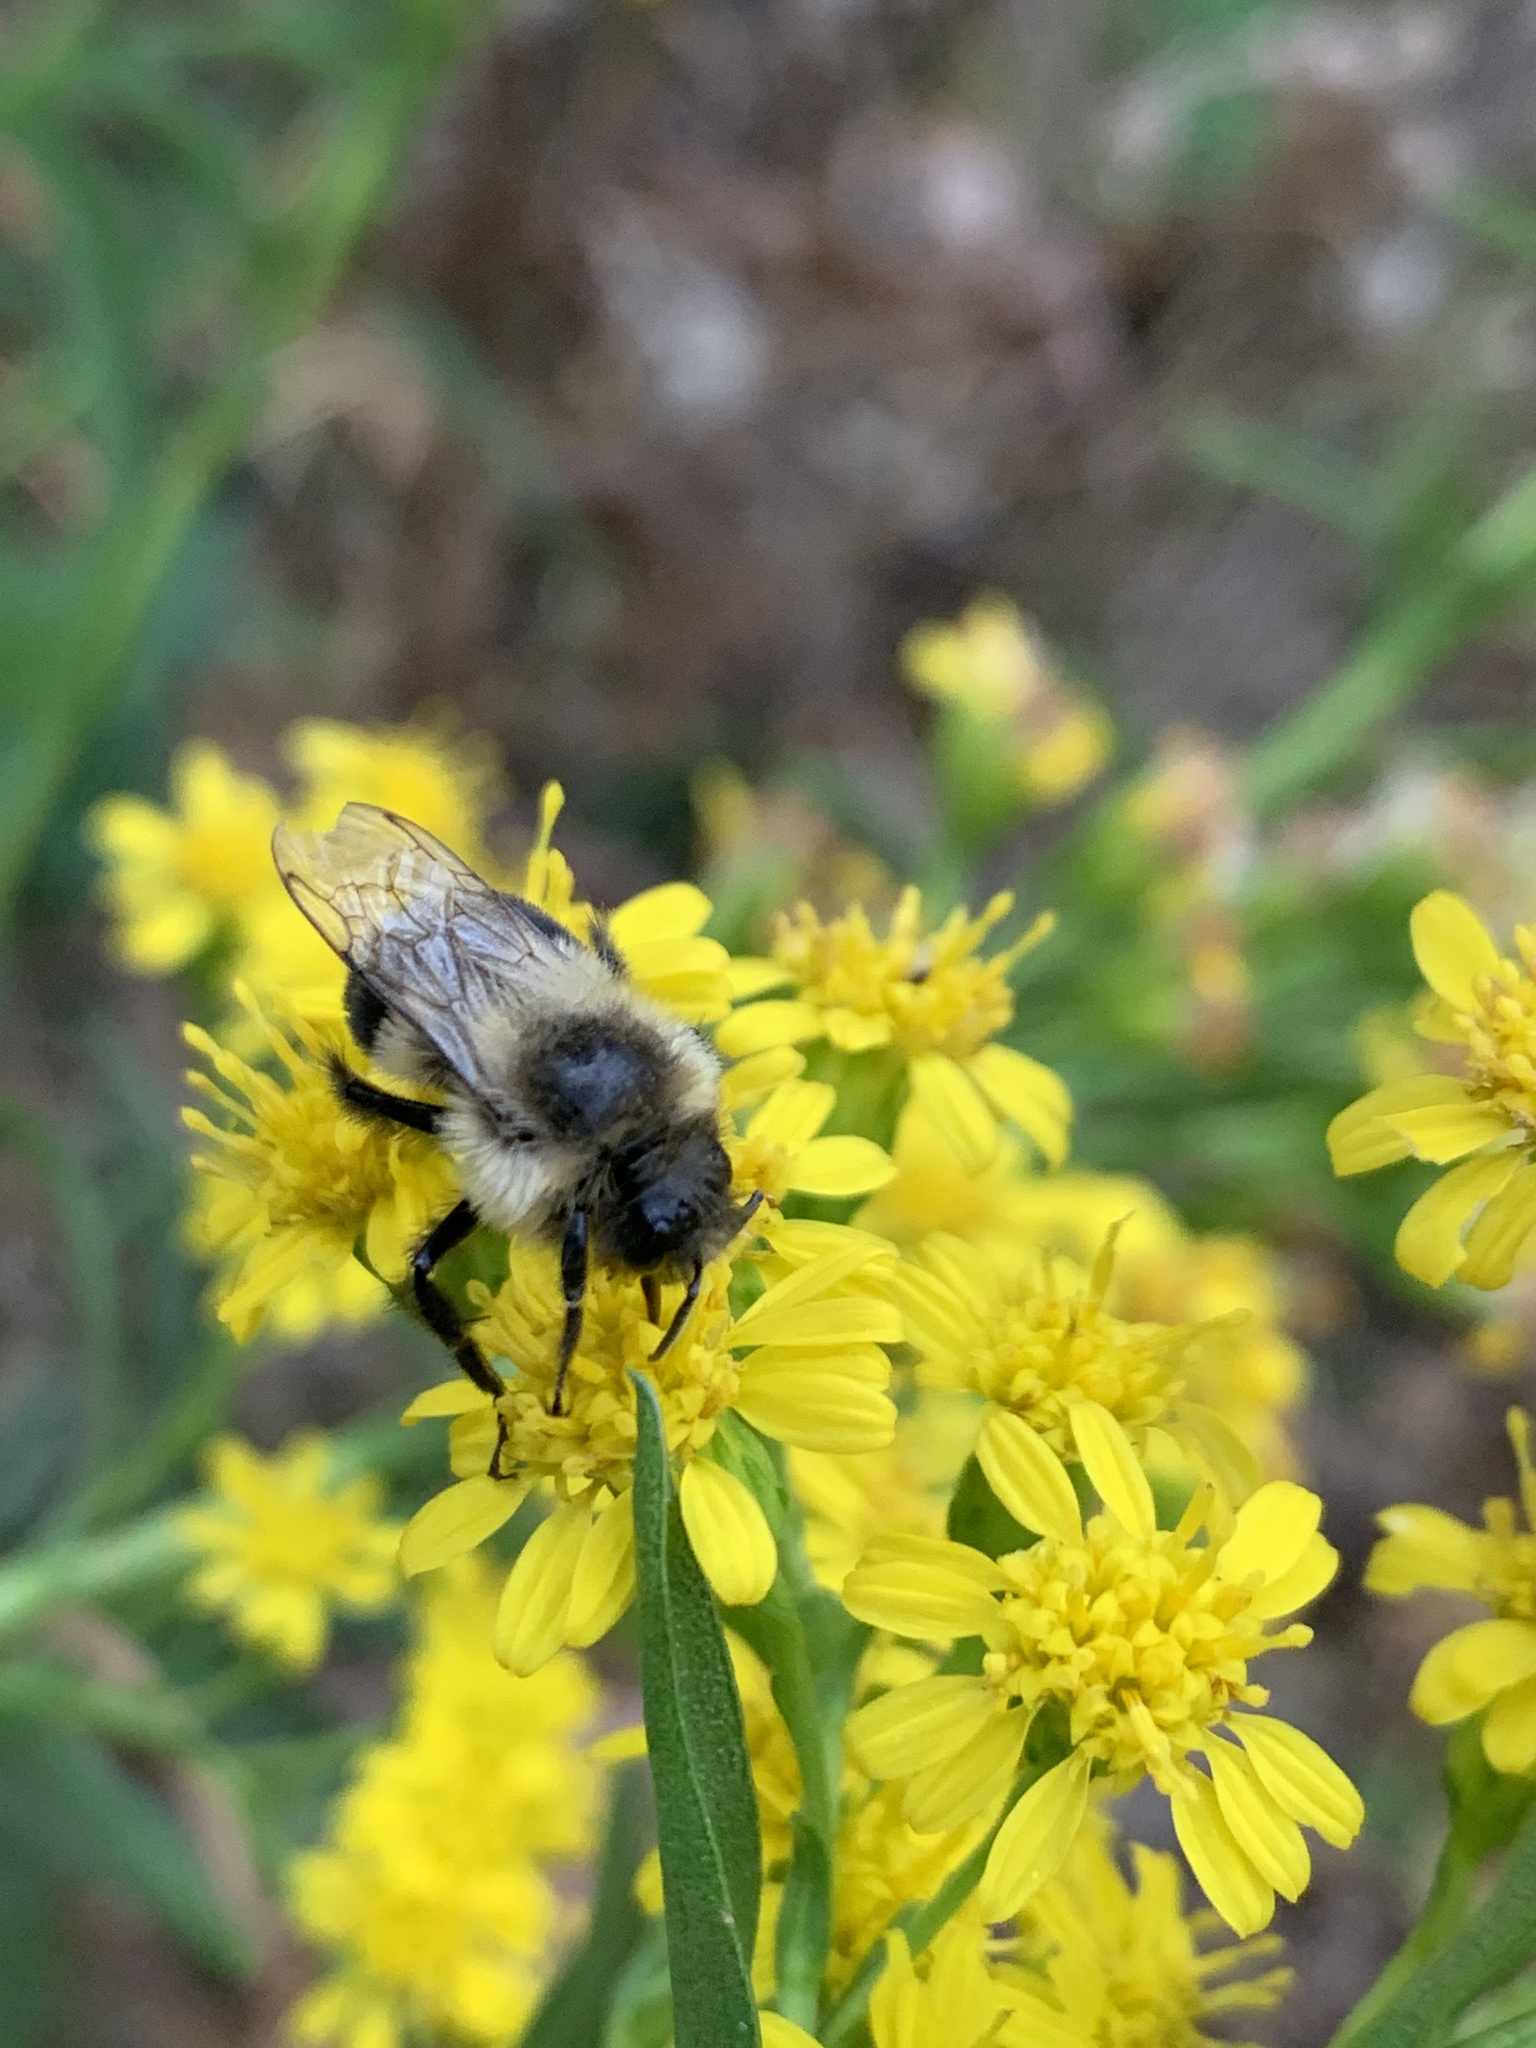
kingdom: Animalia
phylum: Arthropoda
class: Insecta
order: Hymenoptera
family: Apidae
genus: Bombus
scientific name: Bombus impatiens
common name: Common eastern bumble bee
